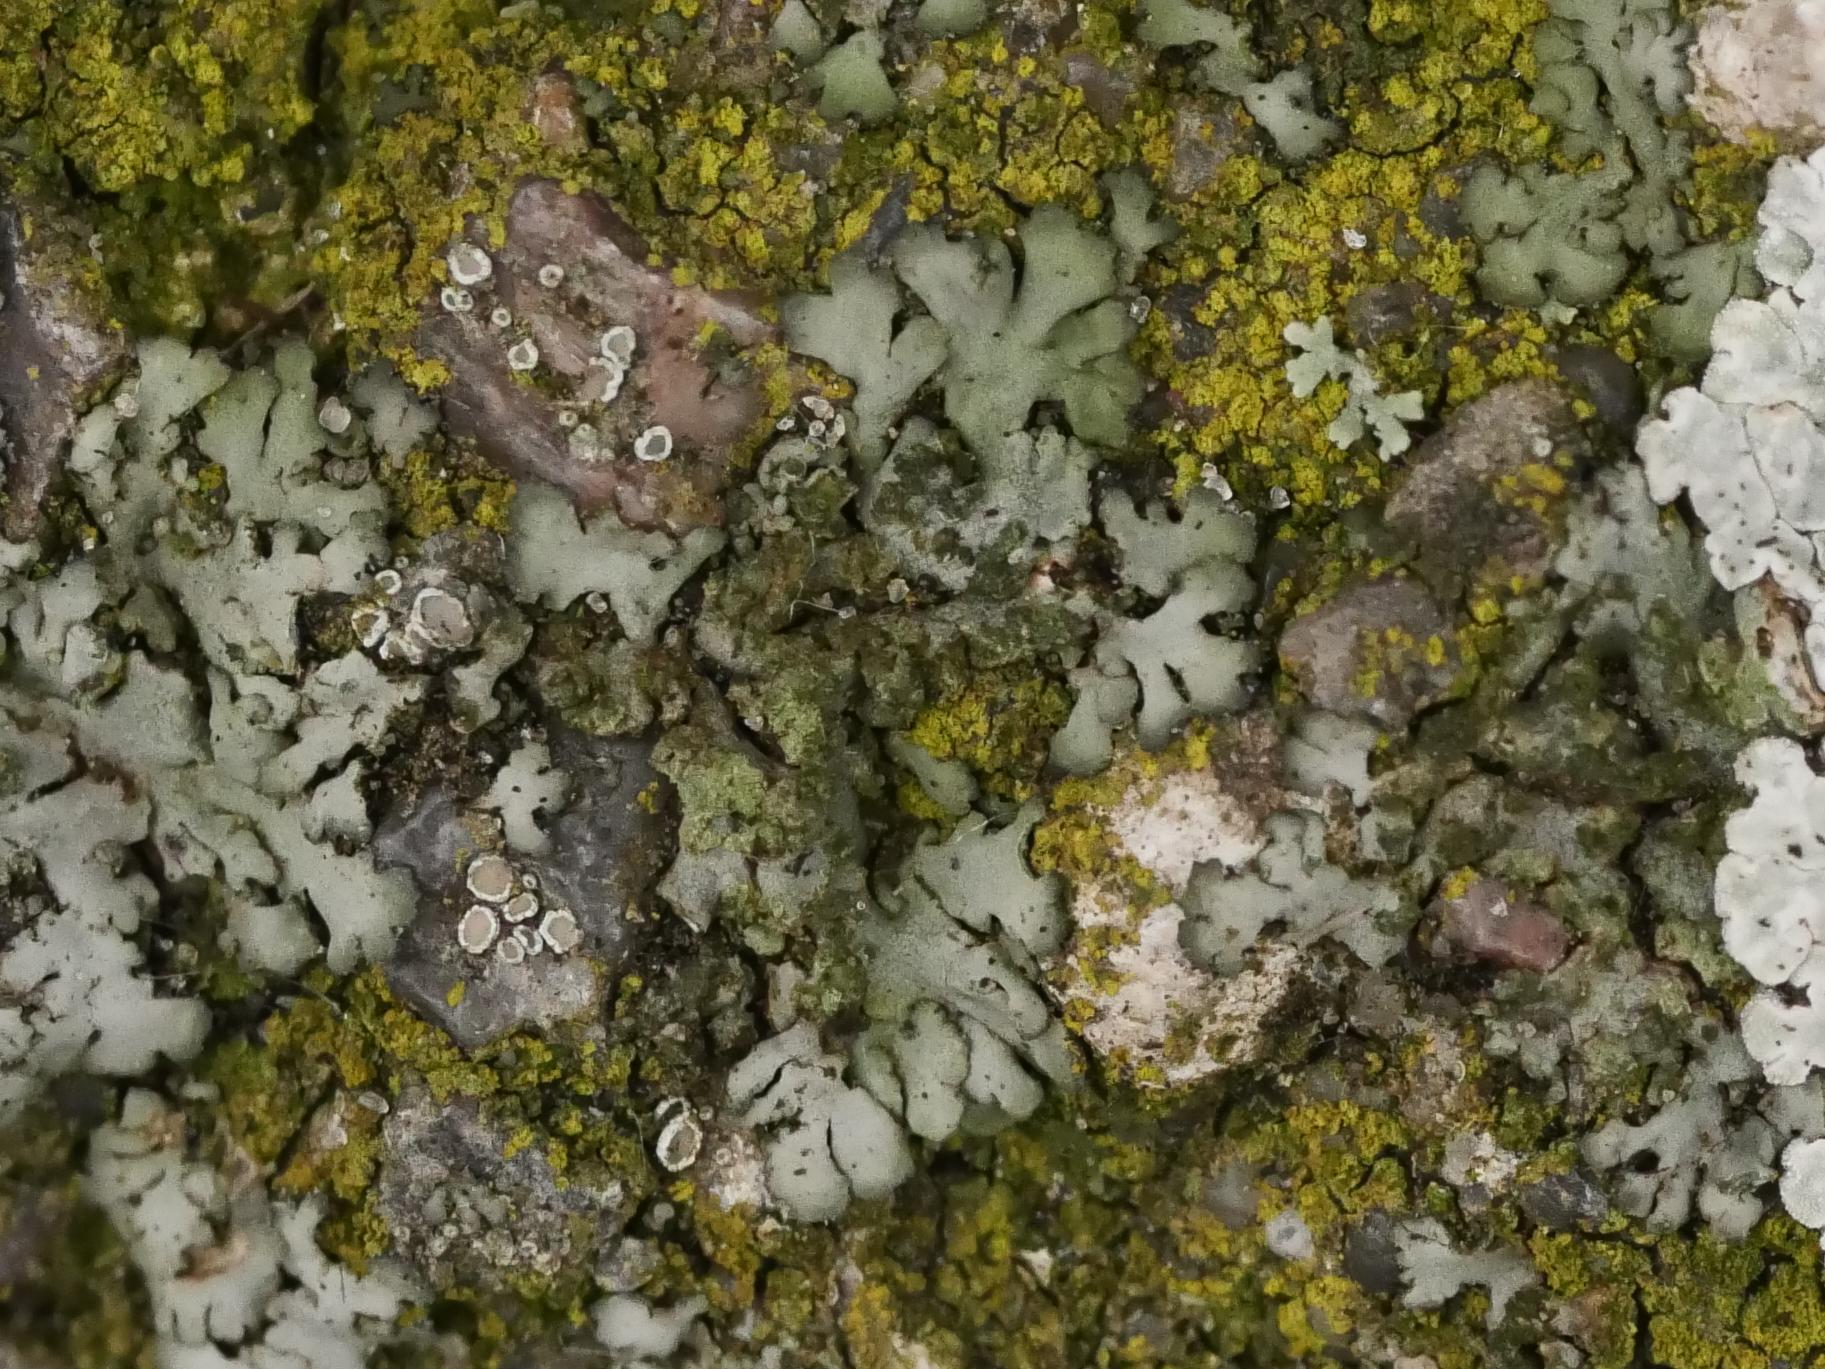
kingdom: Fungi
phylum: Ascomycota
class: Lecanoromycetes
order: Caliciales
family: Physciaceae
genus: Phaeophyscia
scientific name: Phaeophyscia orbicularis
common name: Mealy shadow lichen
